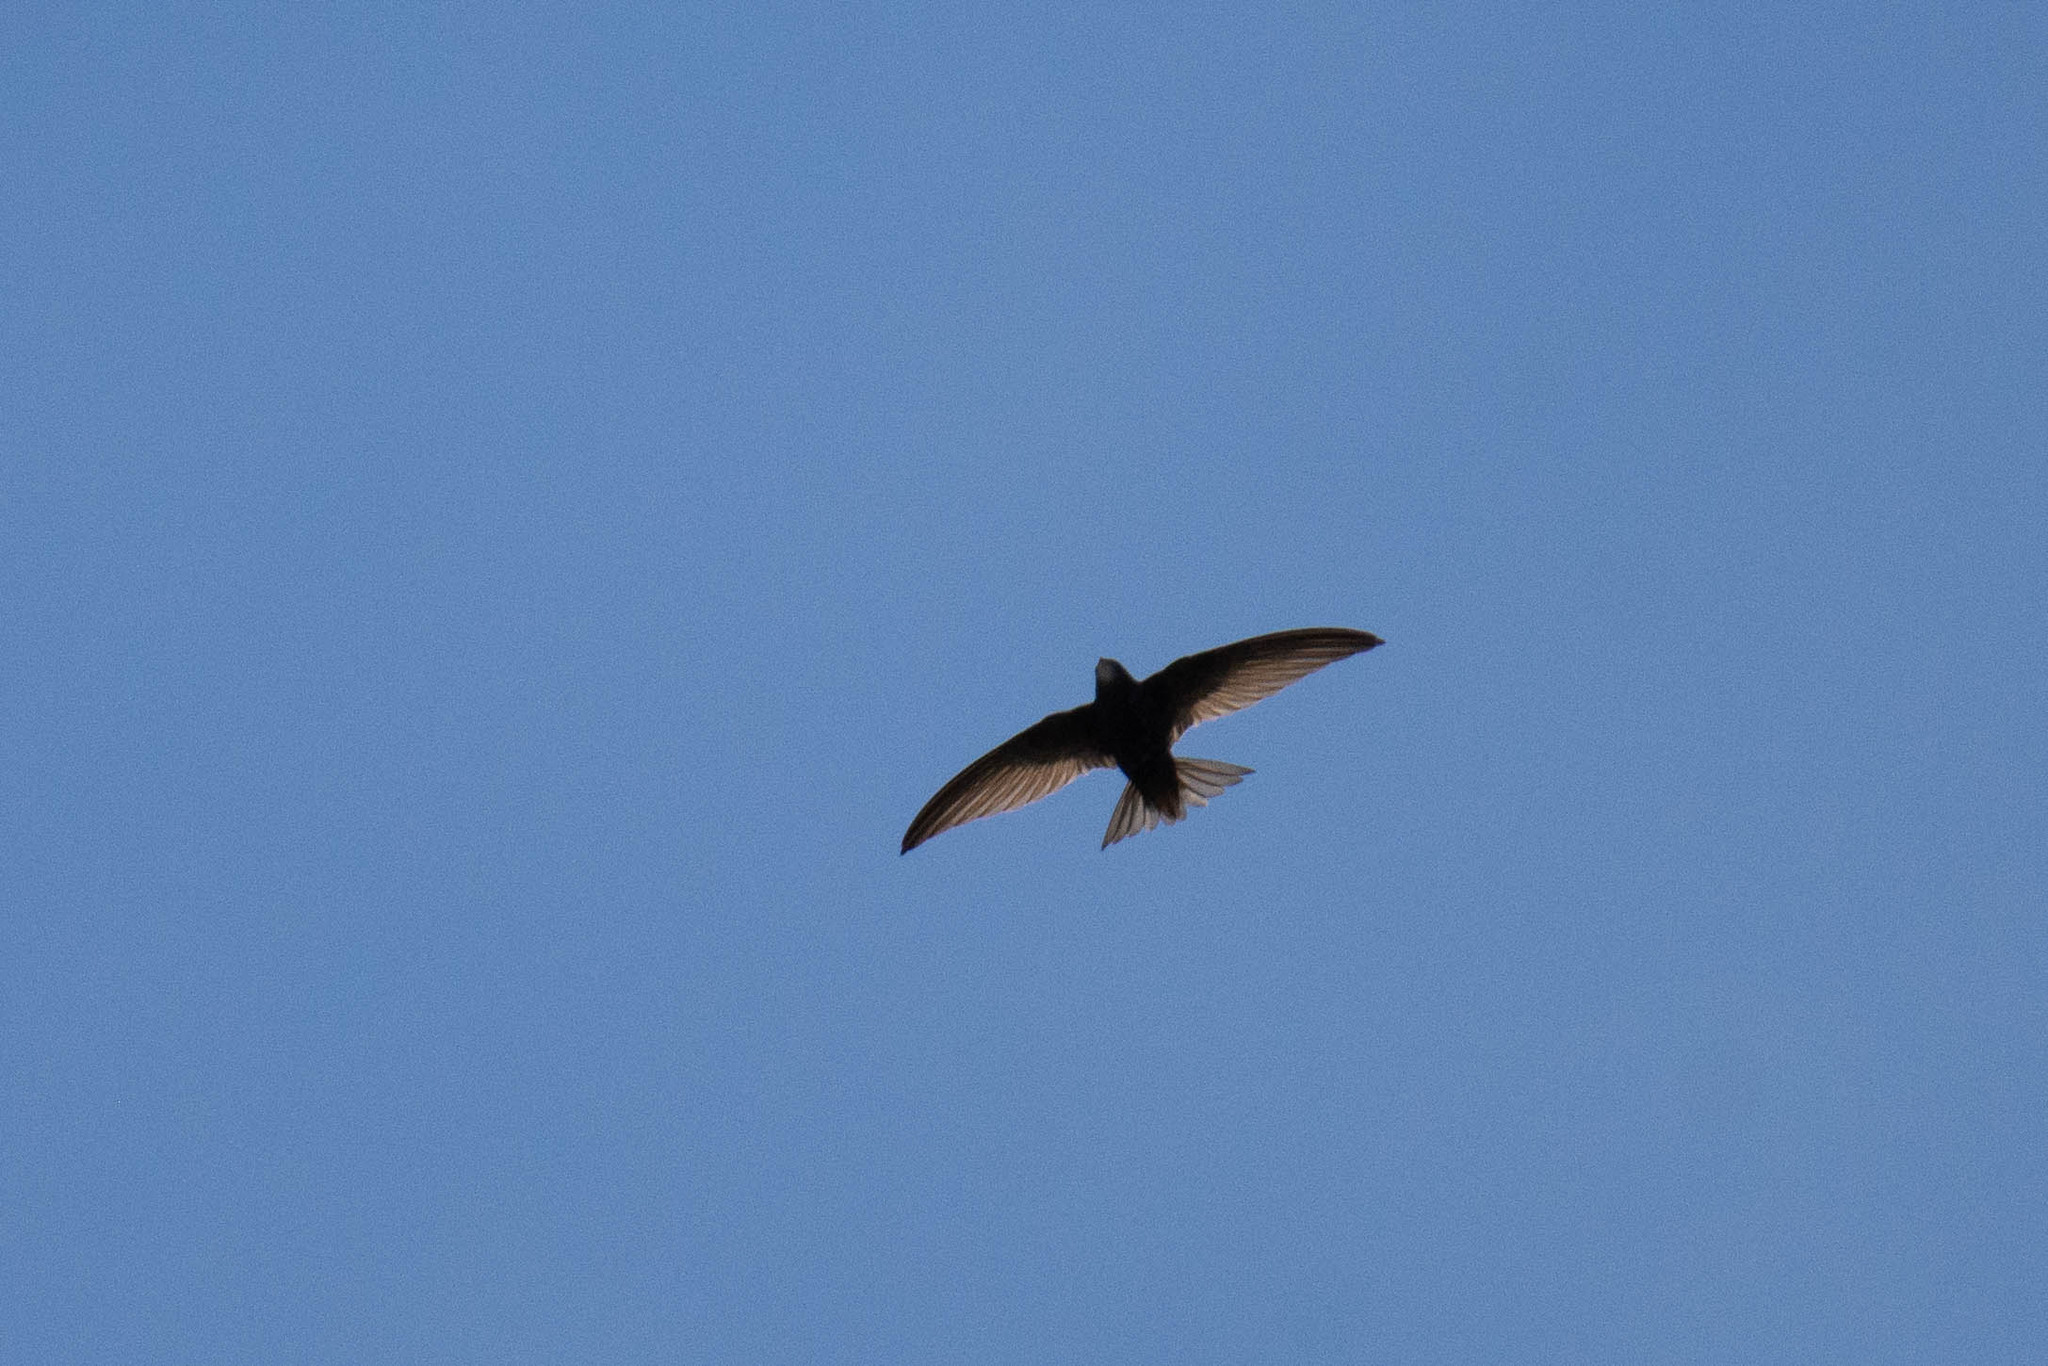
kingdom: Animalia
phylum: Chordata
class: Aves
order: Apodiformes
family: Apodidae
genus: Apus
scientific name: Apus apus
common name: Common swift
